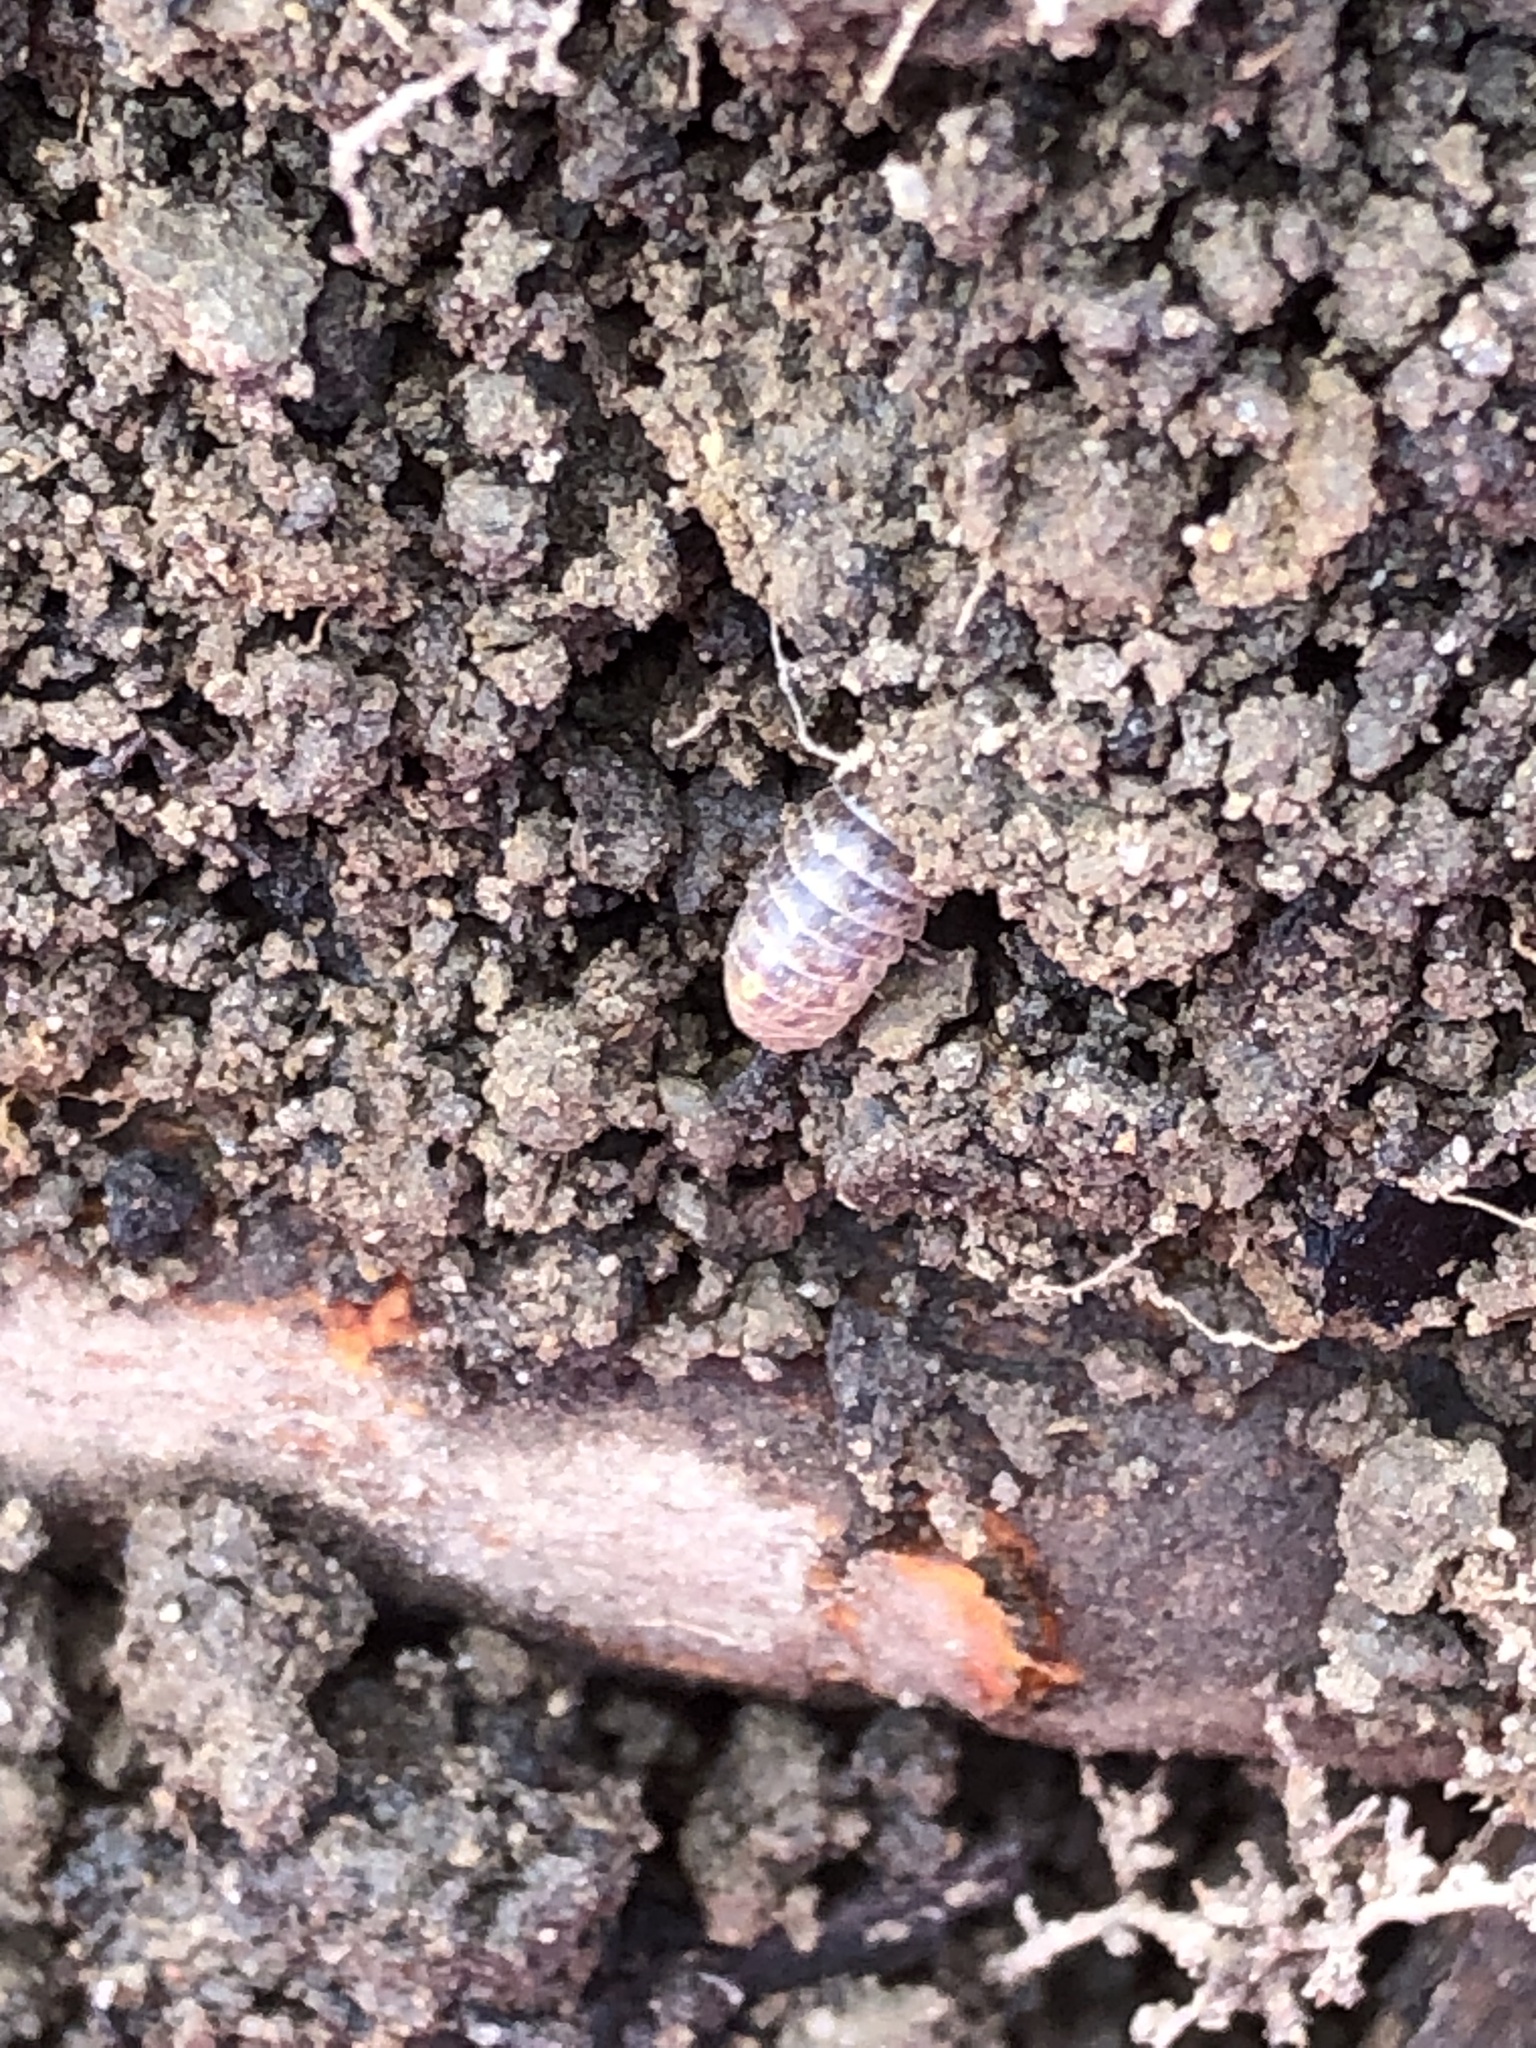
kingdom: Animalia
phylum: Arthropoda
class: Malacostraca
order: Isopoda
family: Armadillidiidae
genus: Armadillidium
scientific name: Armadillidium vulgare
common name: Common pill woodlouse
